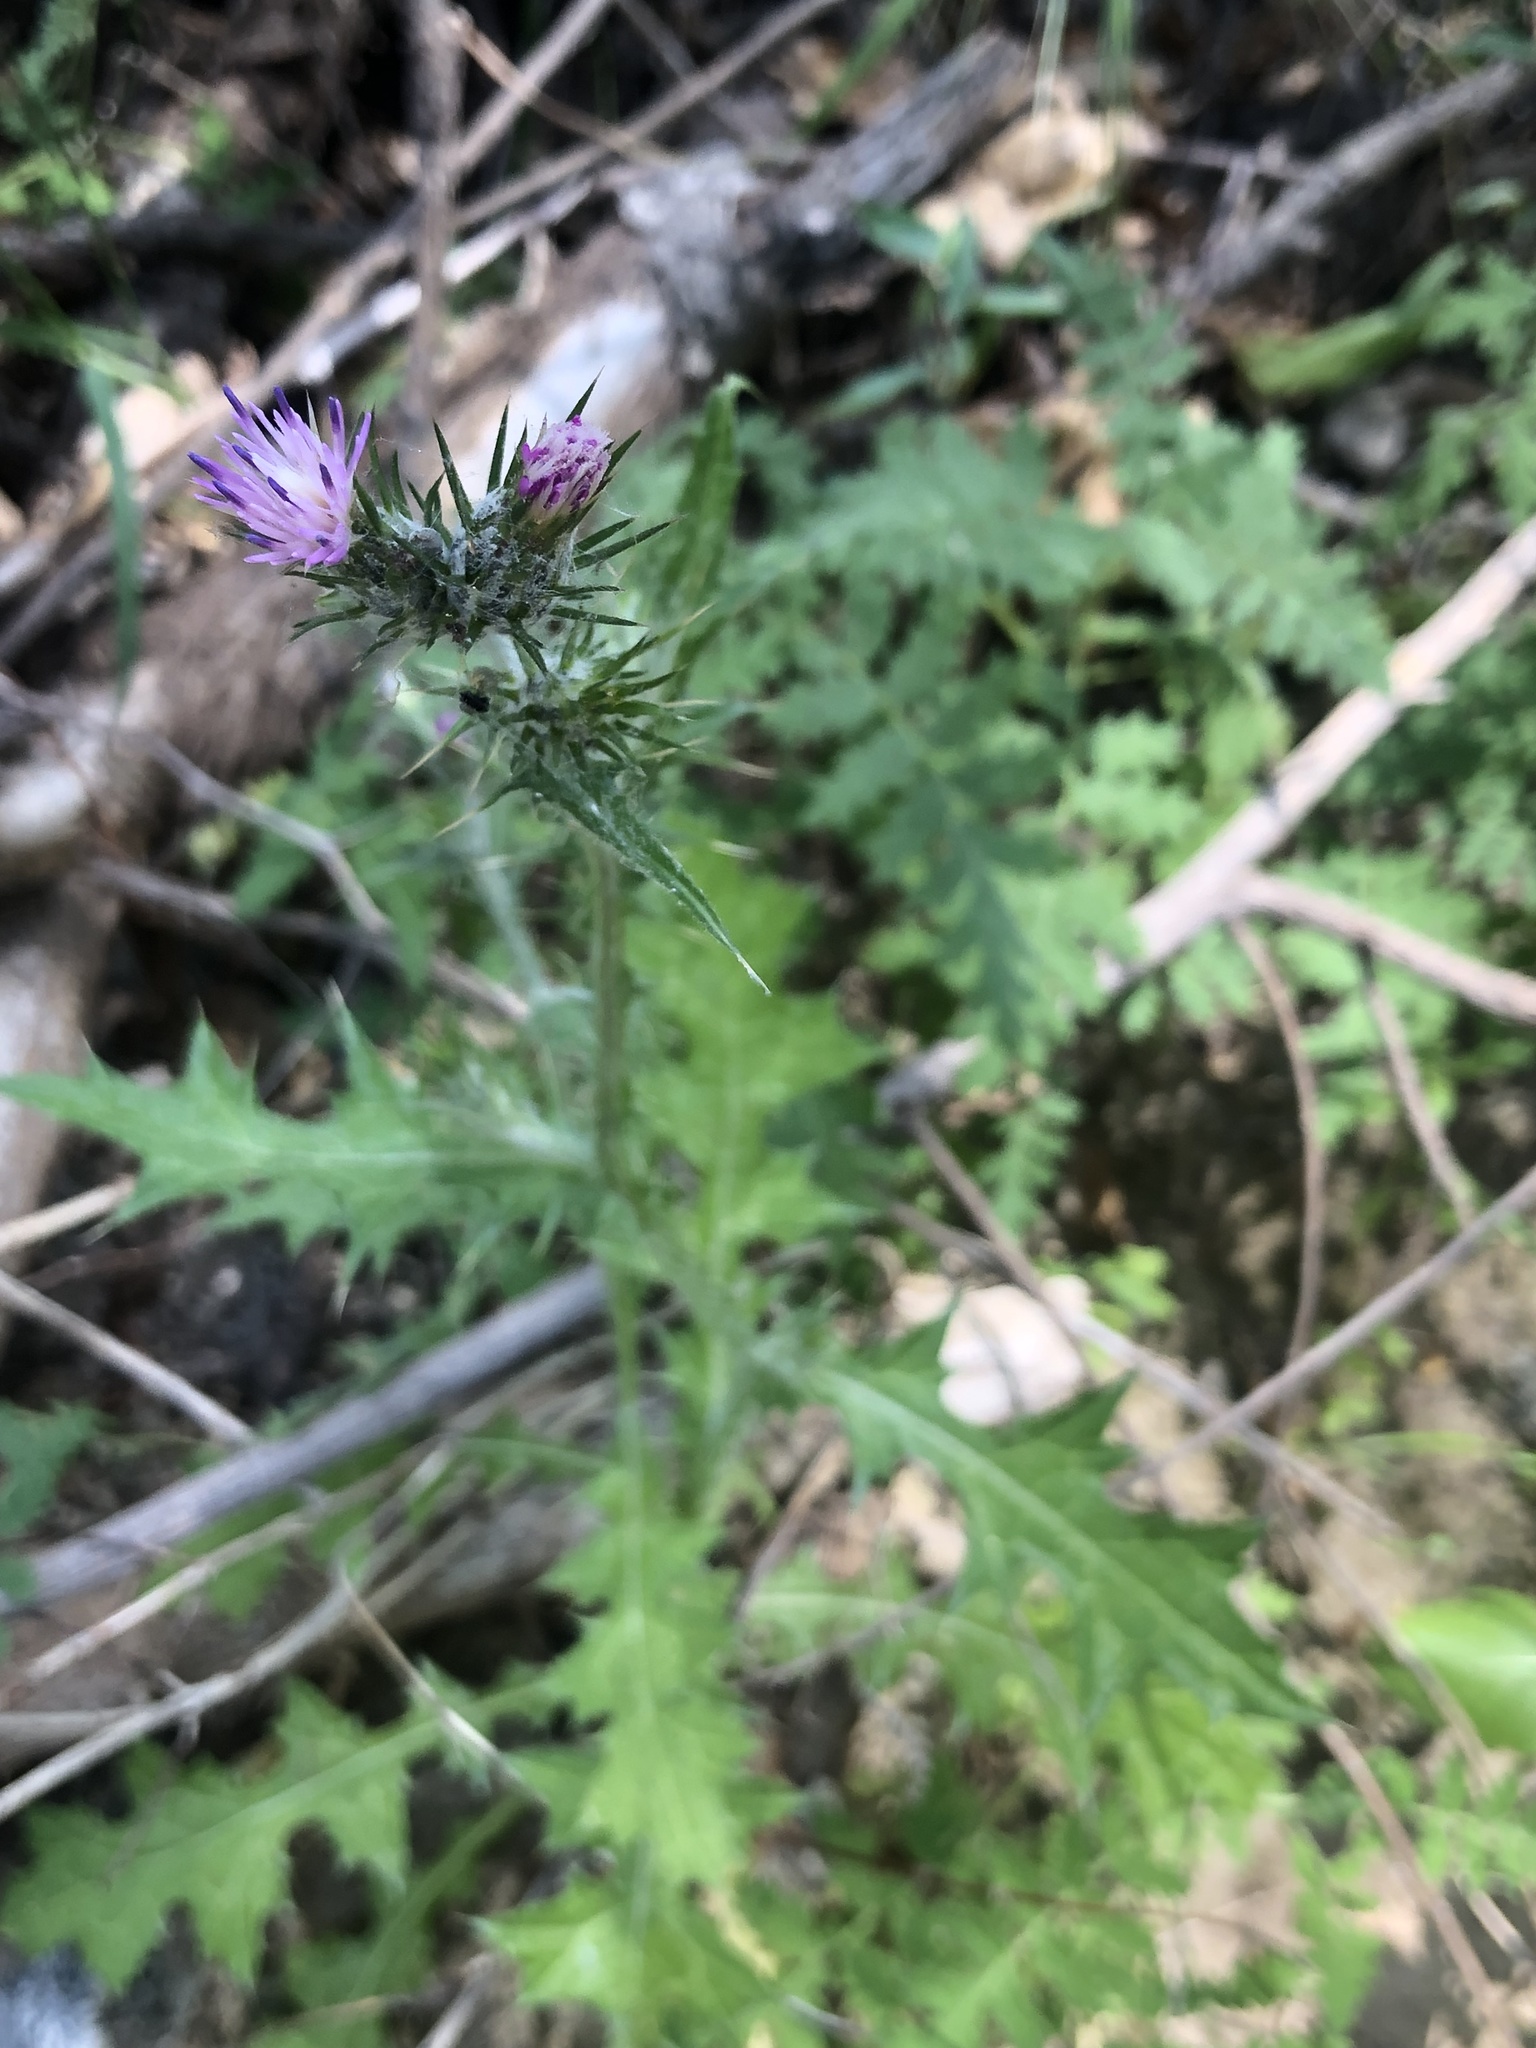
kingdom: Plantae
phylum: Tracheophyta
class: Magnoliopsida
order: Asterales
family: Asteraceae
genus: Carduus
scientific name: Carduus pycnocephalus
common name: Plymouth thistle
